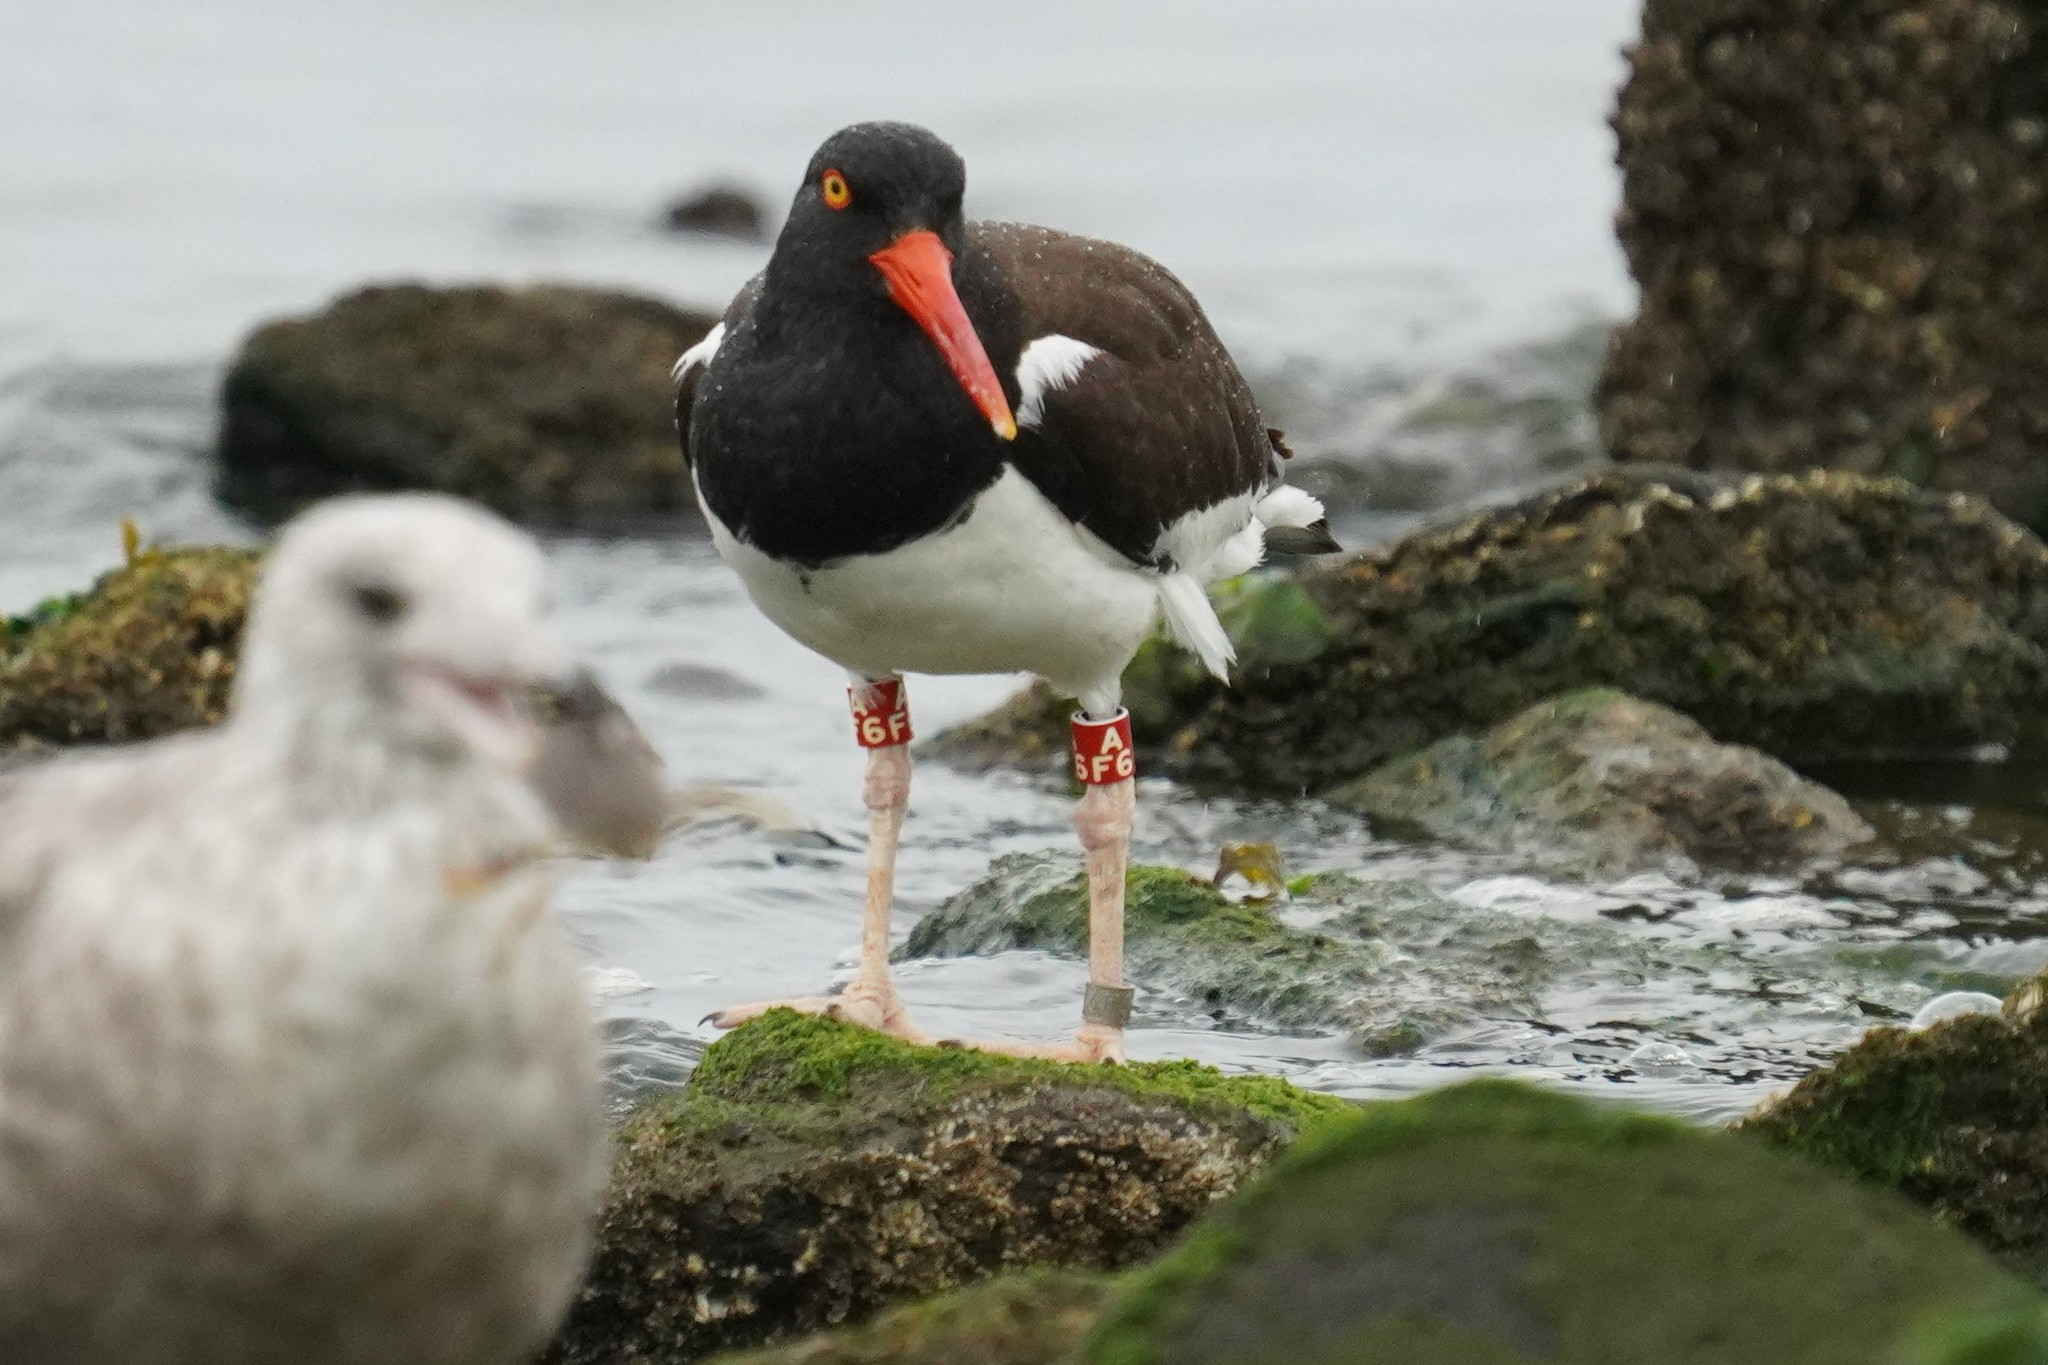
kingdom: Animalia
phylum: Chordata
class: Aves
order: Charadriiformes
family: Haematopodidae
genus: Haematopus
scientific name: Haematopus palliatus
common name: American oystercatcher
